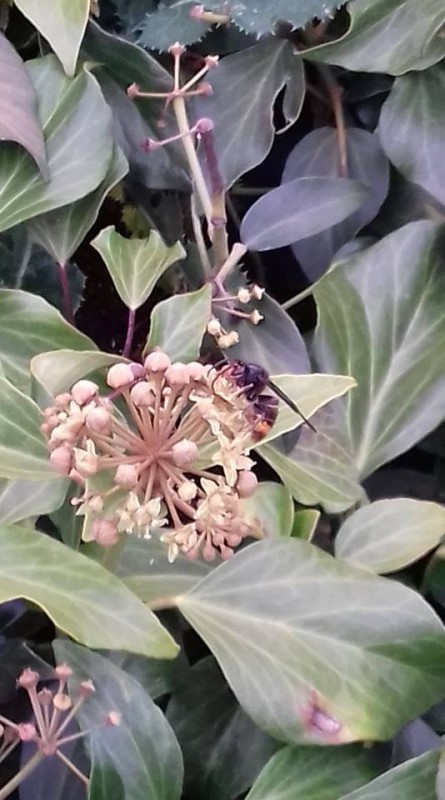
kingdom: Animalia
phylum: Arthropoda
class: Insecta
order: Hymenoptera
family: Vespidae
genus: Vespa
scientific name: Vespa velutina
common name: Asian hornet
